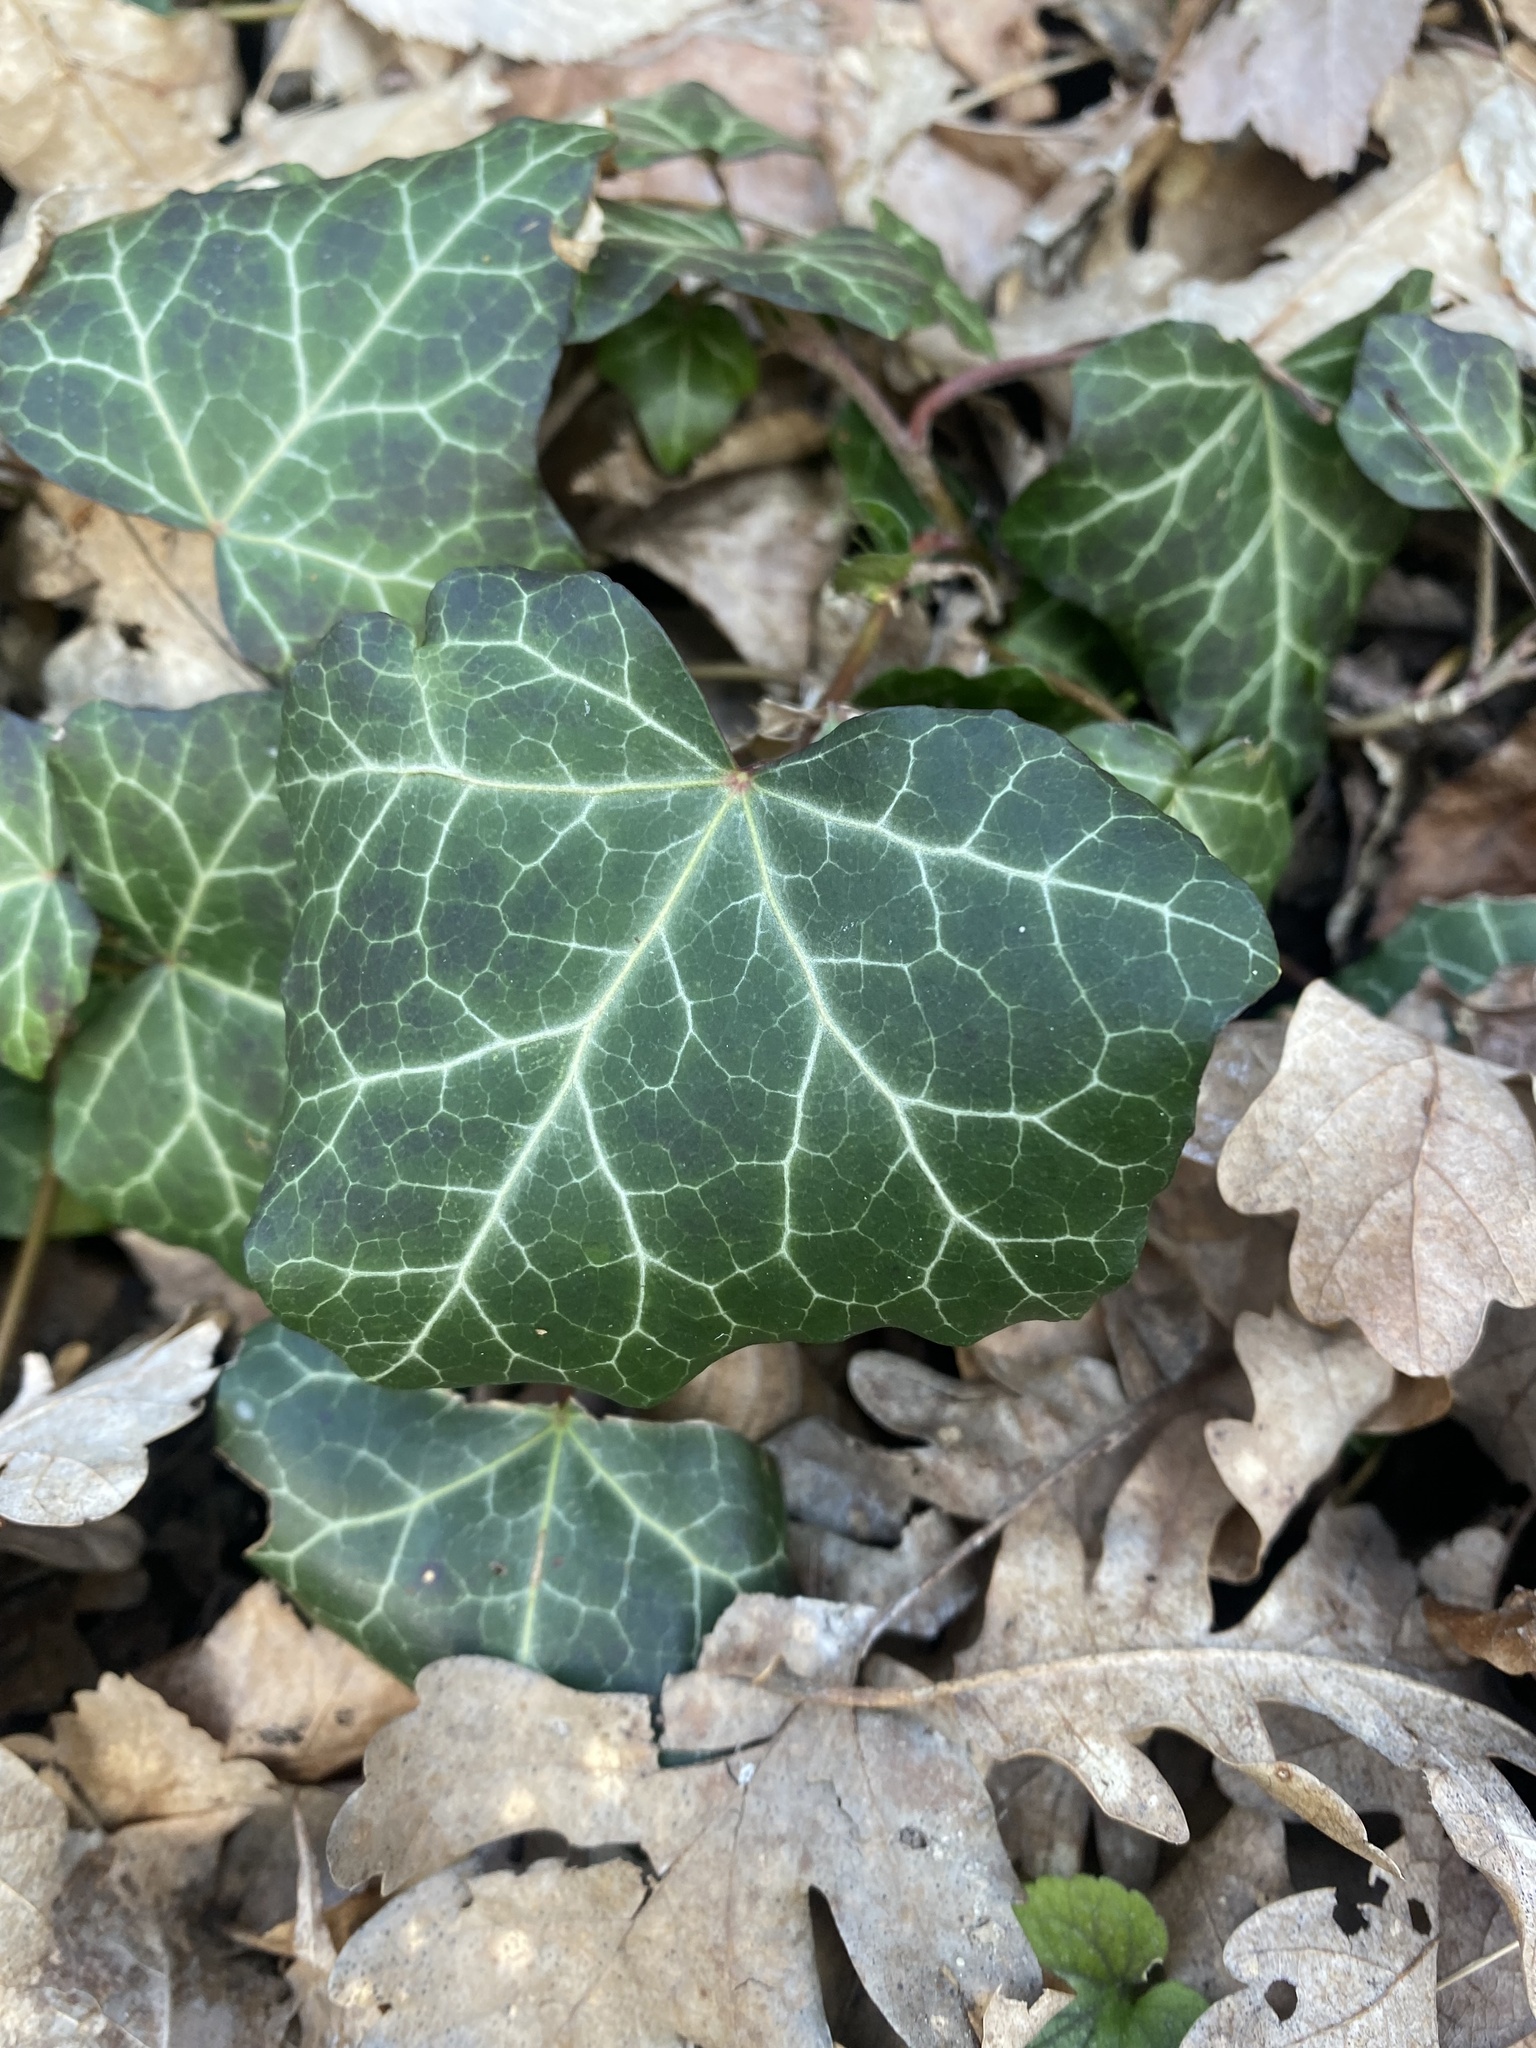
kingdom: Plantae
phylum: Tracheophyta
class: Magnoliopsida
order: Apiales
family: Araliaceae
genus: Hedera
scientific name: Hedera helix
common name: Ivy
